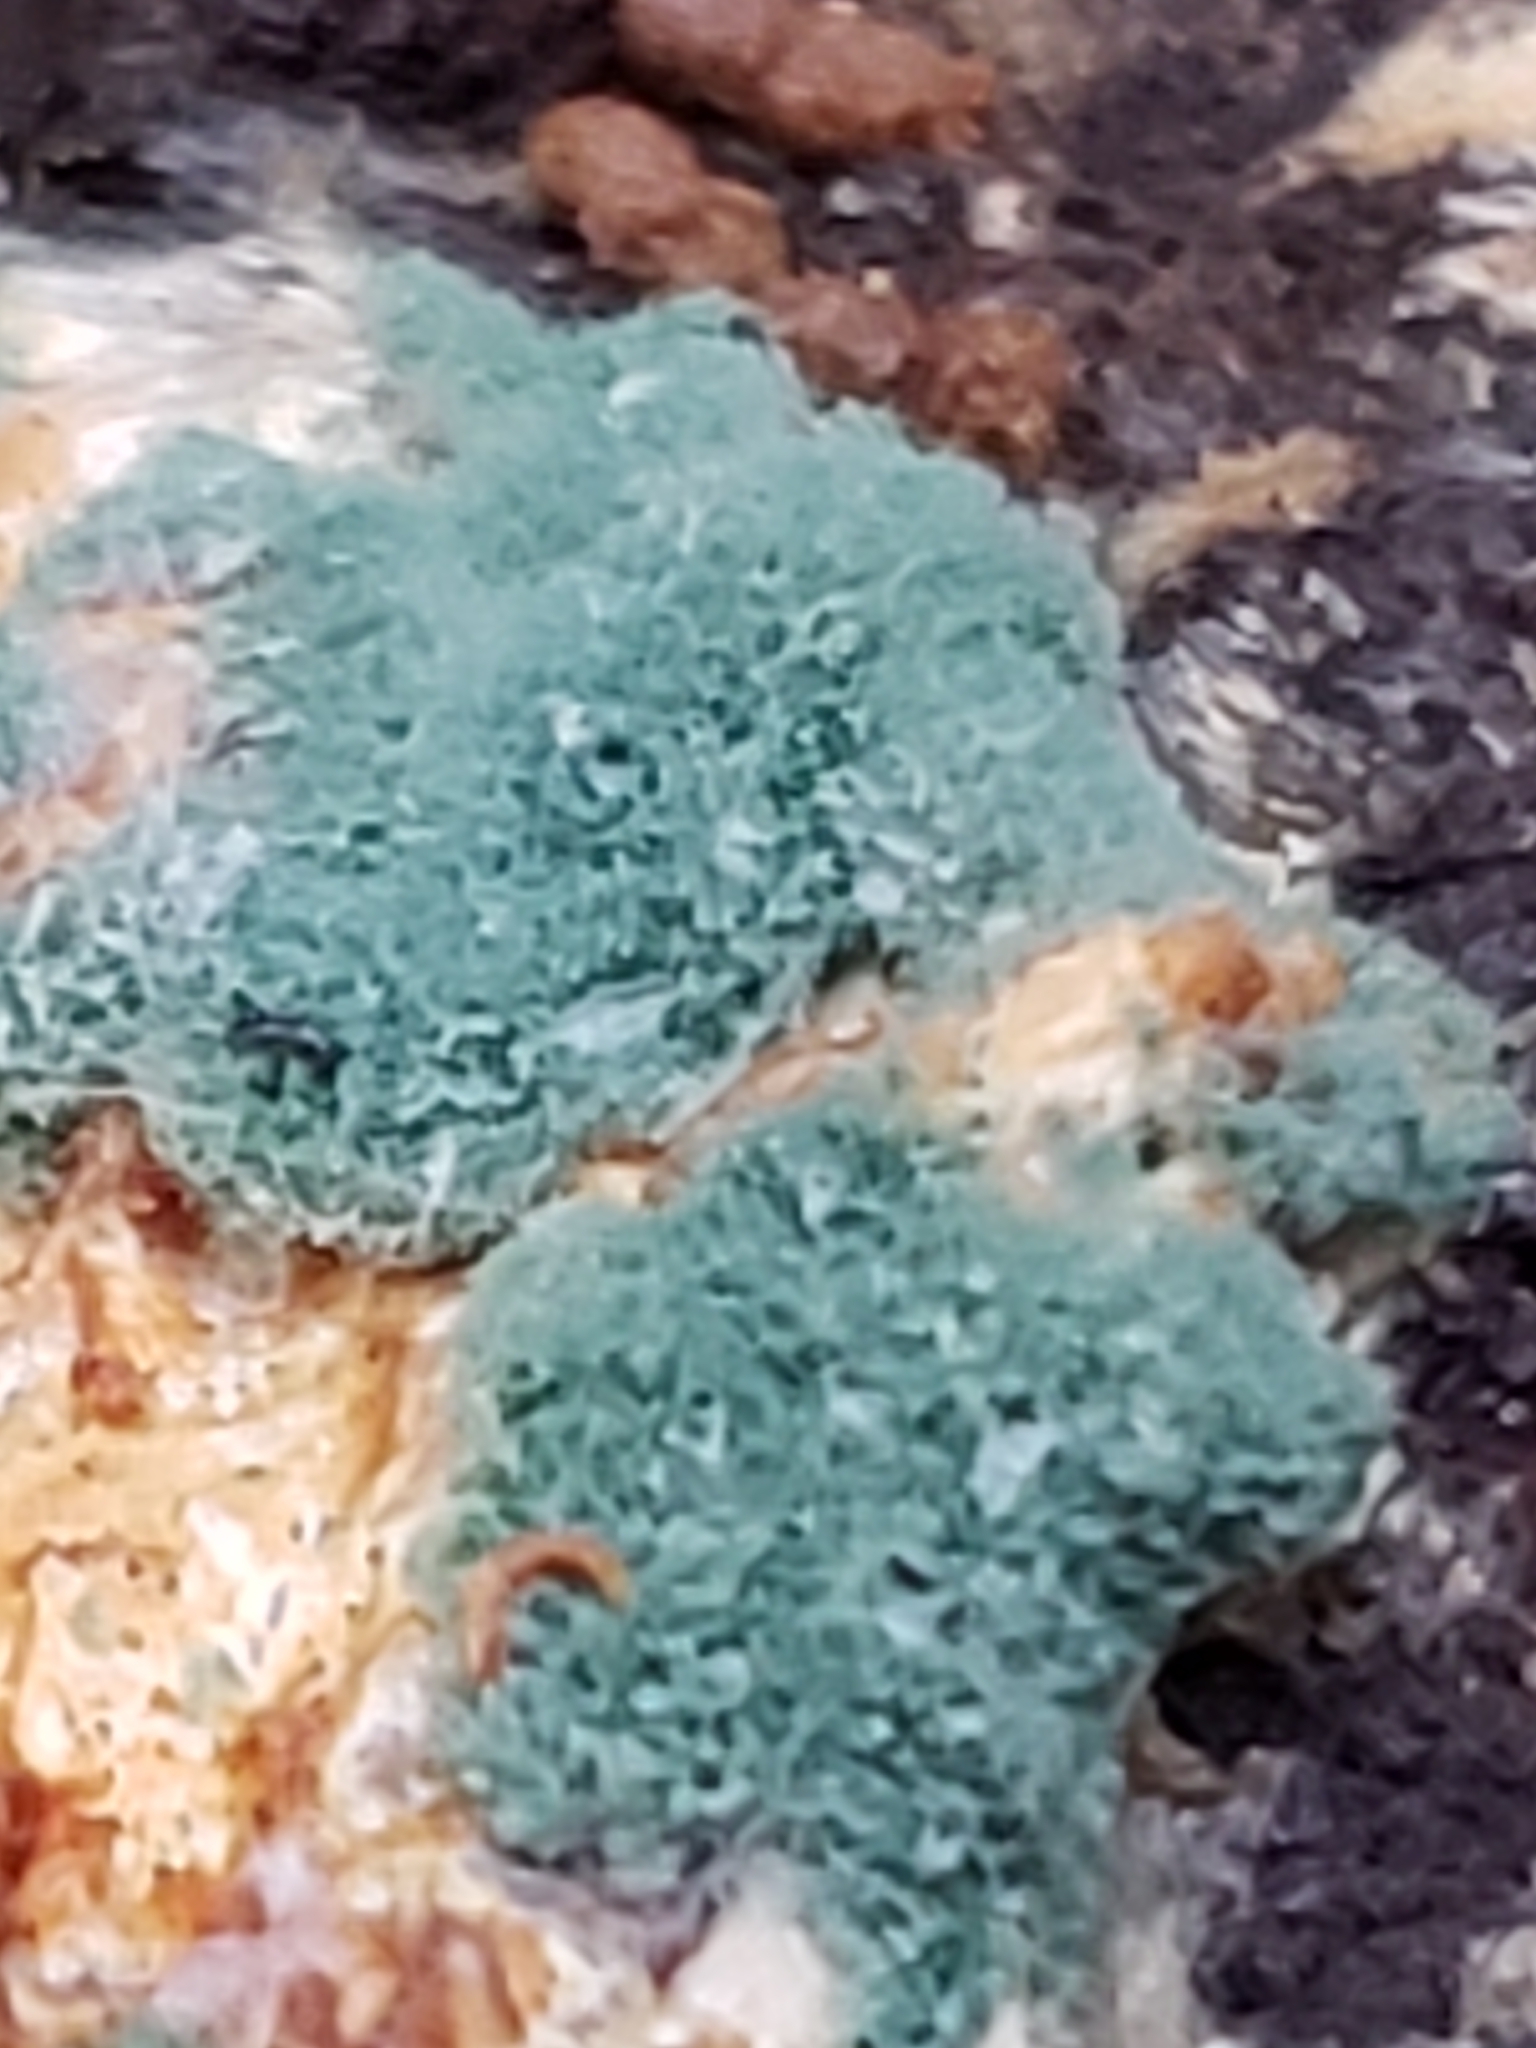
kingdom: Fungi
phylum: Ascomycota
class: Sordariomycetes
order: Hypocreales
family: Hypocreaceae
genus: Trichoderma
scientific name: Trichoderma viride
